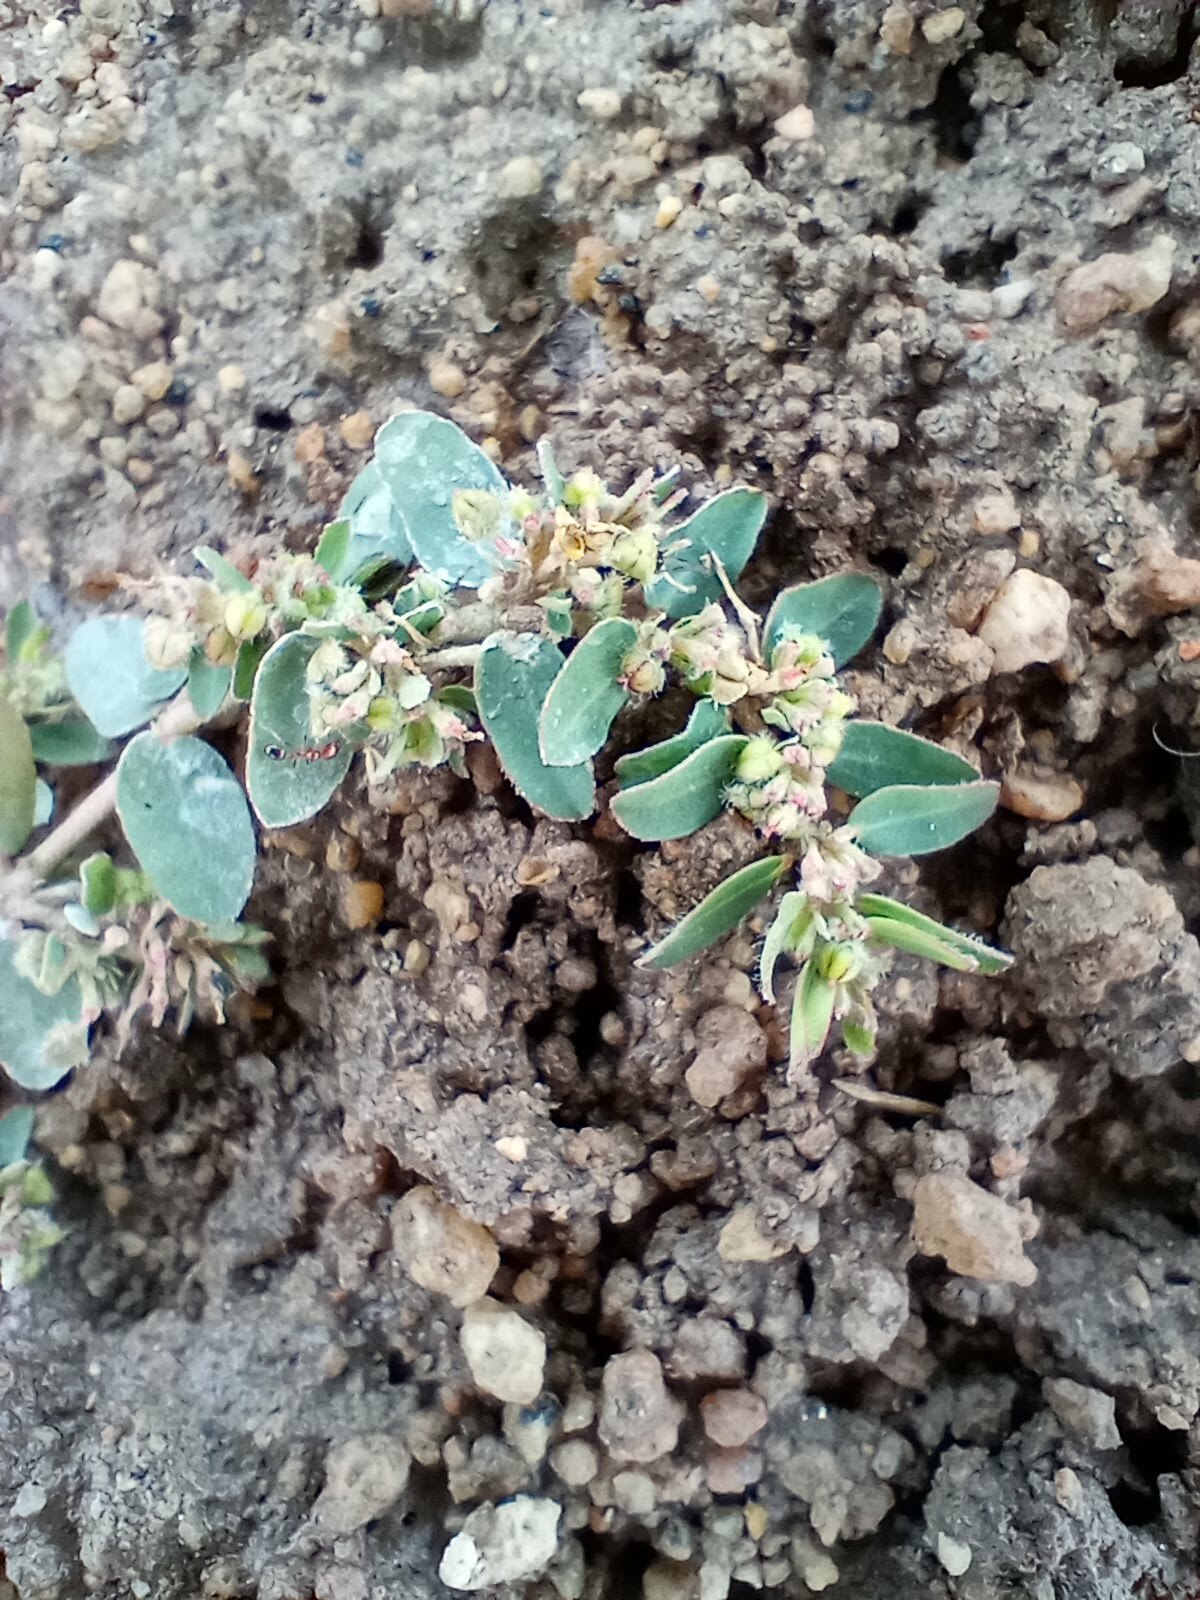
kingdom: Plantae
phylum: Tracheophyta
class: Magnoliopsida
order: Malpighiales
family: Euphorbiaceae
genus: Euphorbia
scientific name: Euphorbia prostrata
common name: Prostrate sandmat
